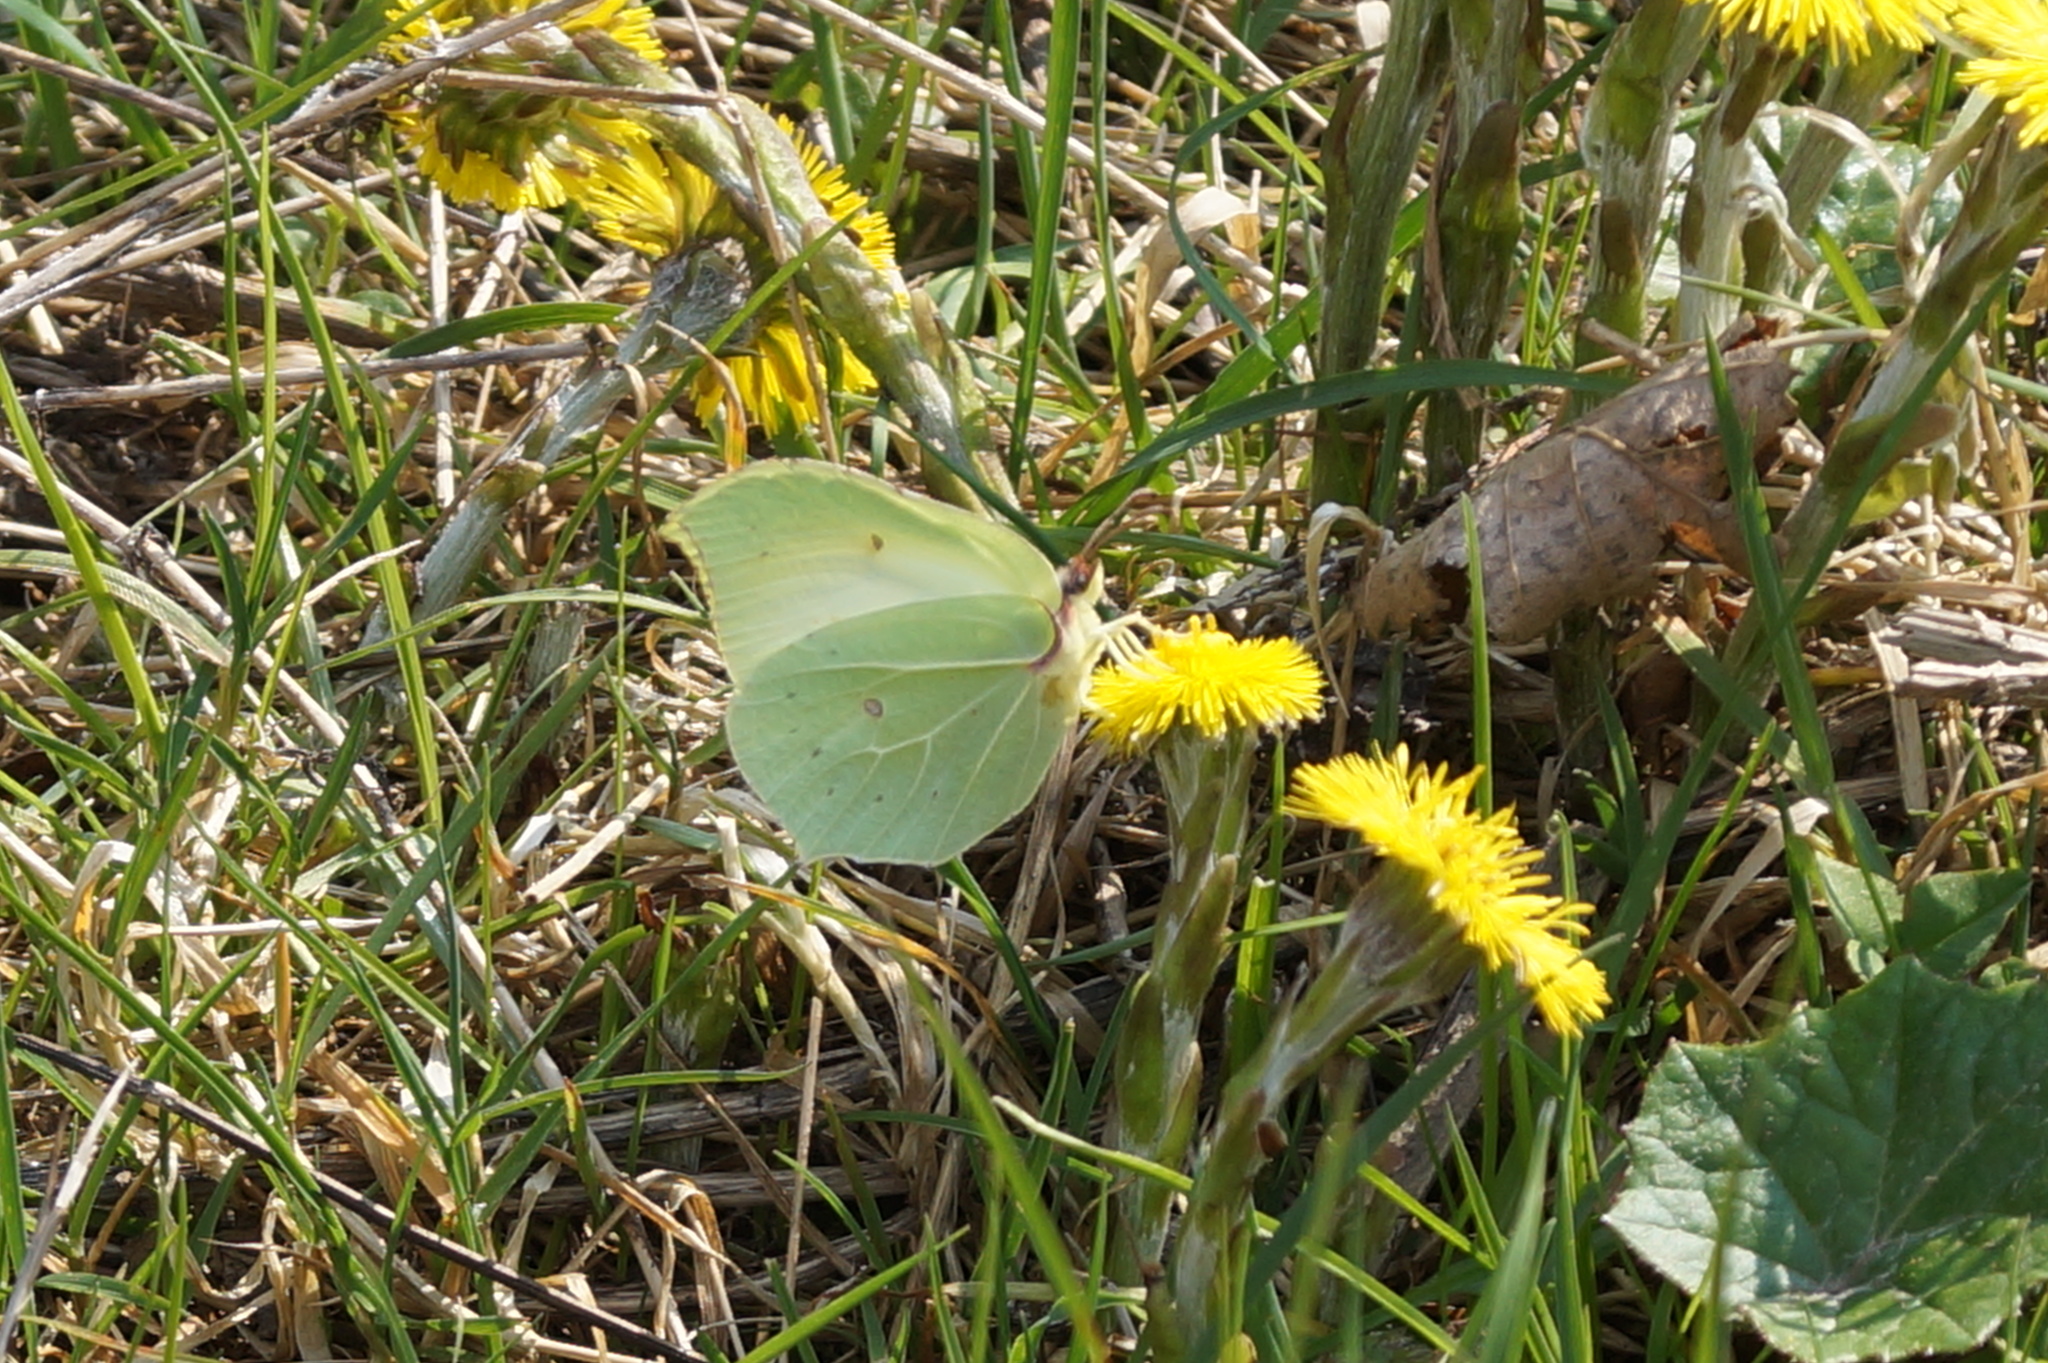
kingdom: Animalia
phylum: Arthropoda
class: Insecta
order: Lepidoptera
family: Pieridae
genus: Gonepteryx
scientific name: Gonepteryx rhamni
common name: Brimstone
